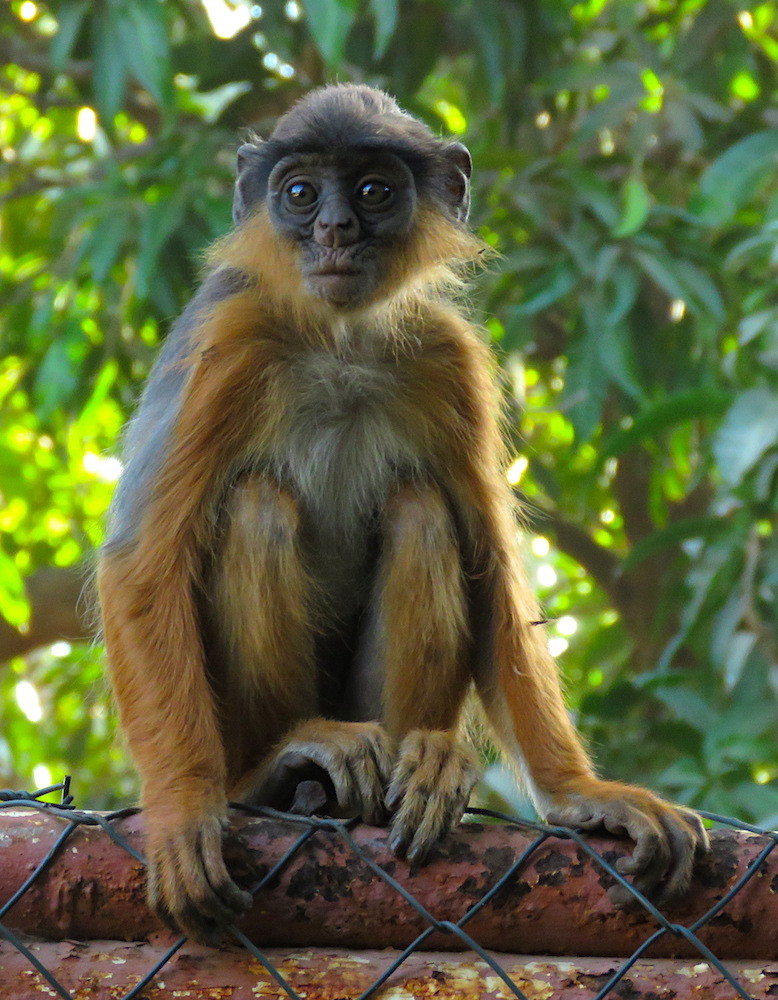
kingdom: Animalia
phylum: Chordata
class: Mammalia
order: Primates
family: Cercopithecidae
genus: Piliocolobus
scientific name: Piliocolobus badius
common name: Western red colobus
